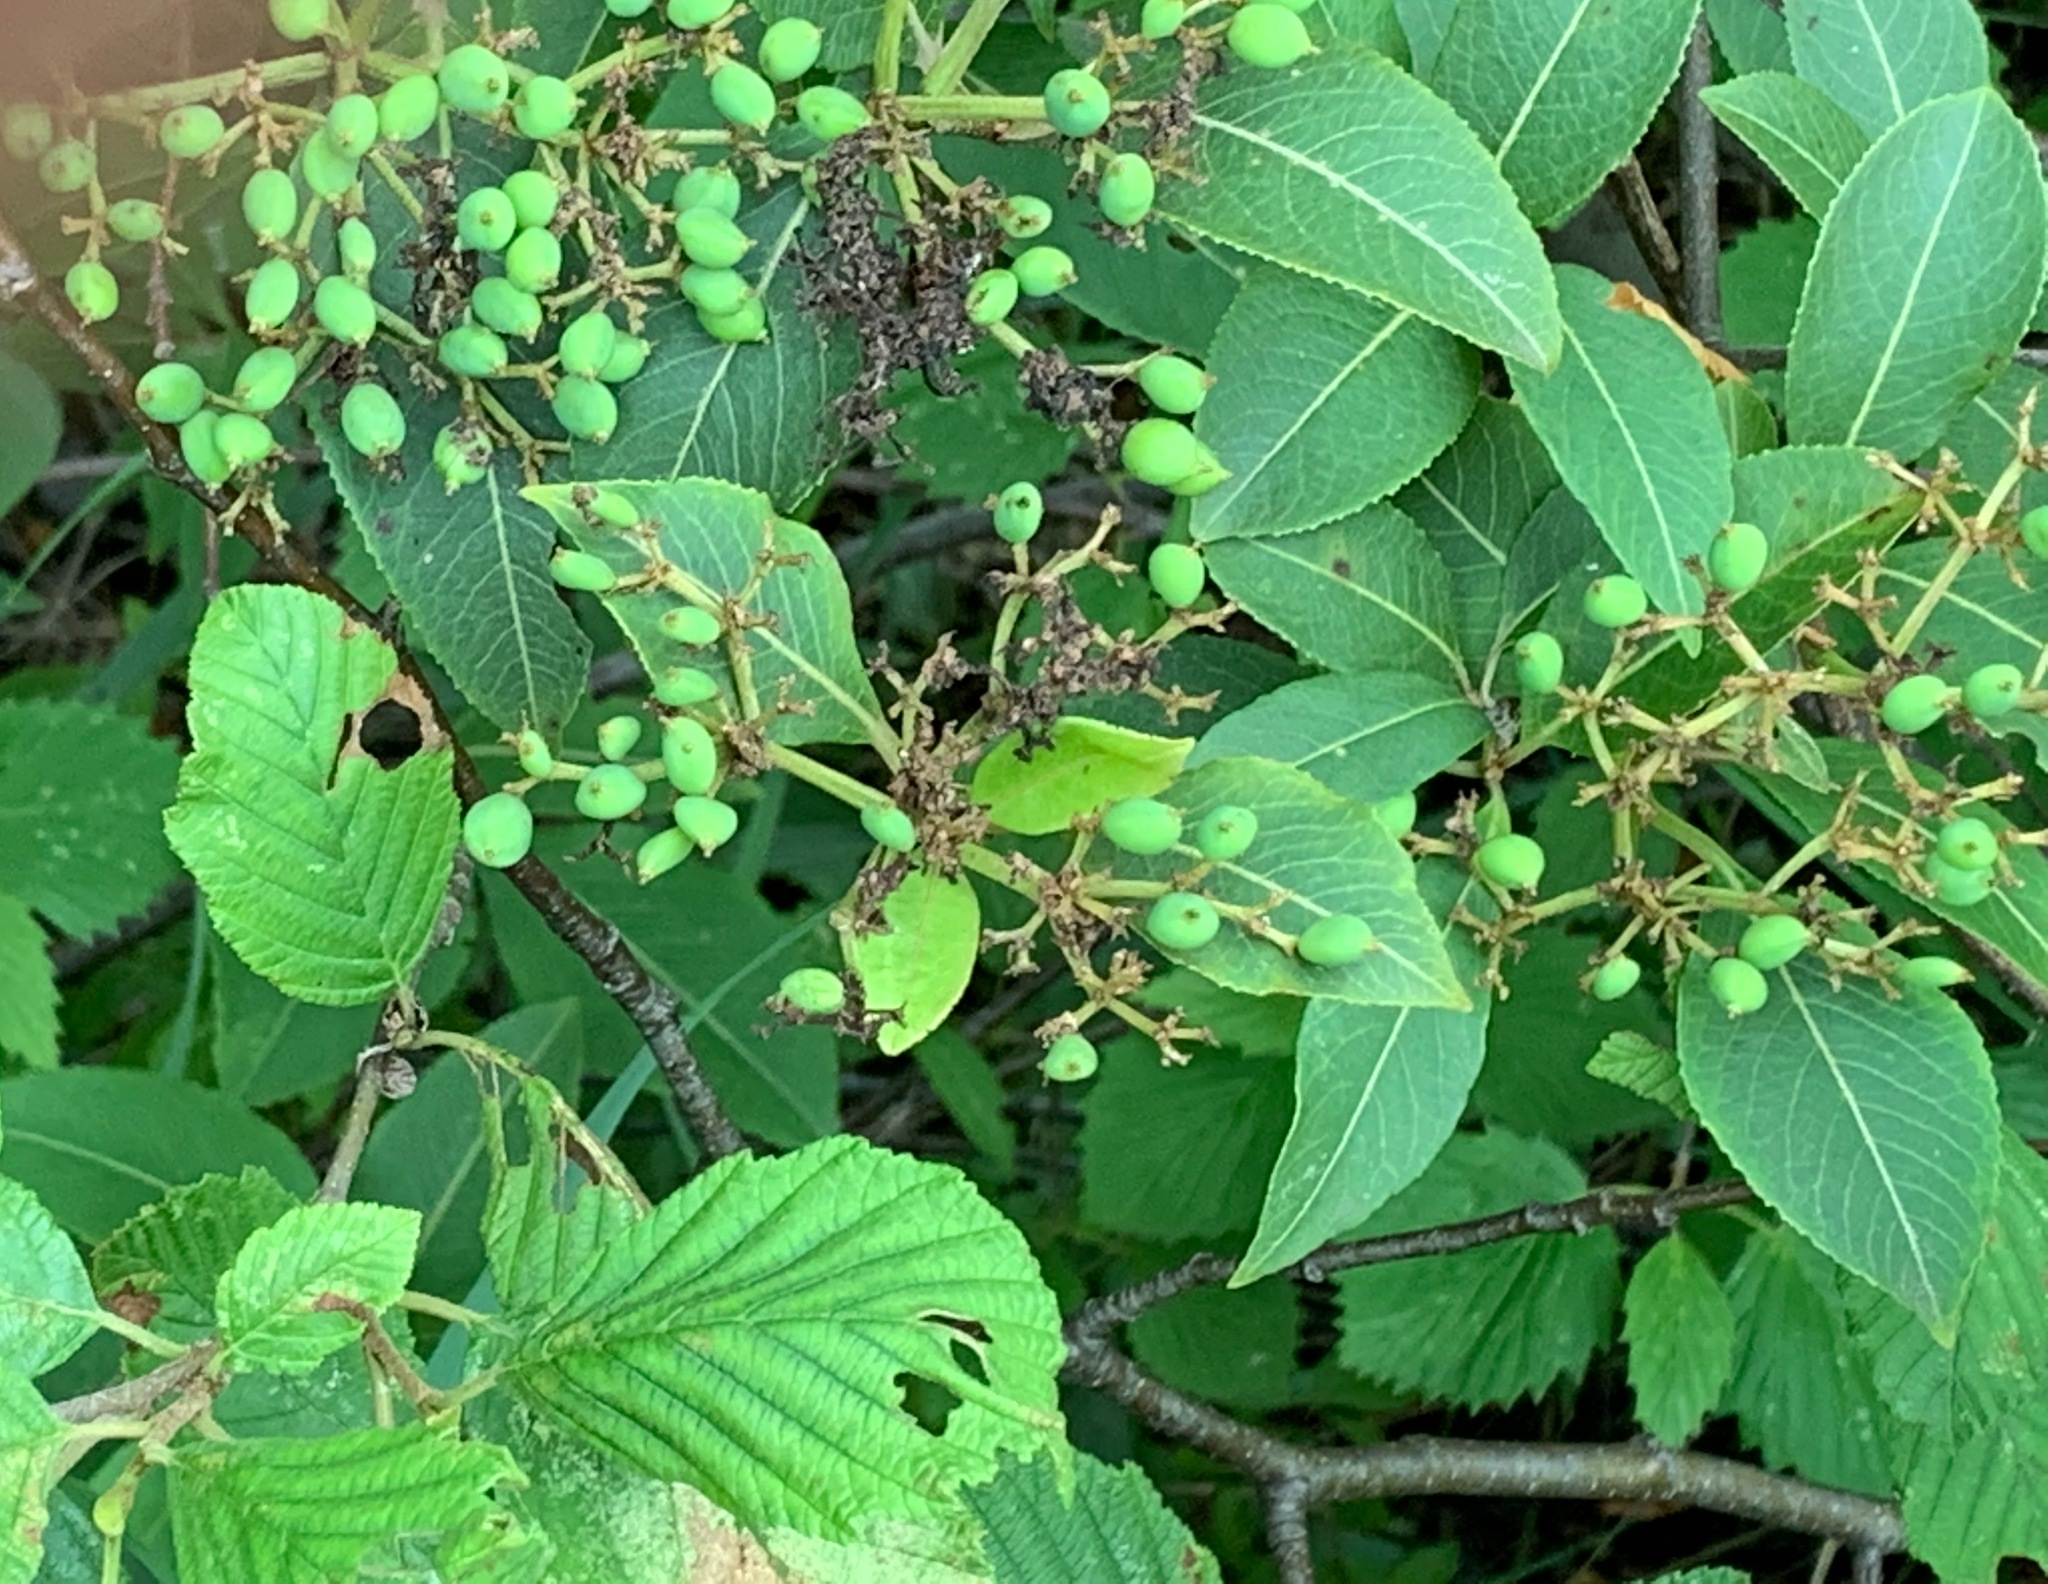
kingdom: Plantae
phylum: Tracheophyta
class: Magnoliopsida
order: Dipsacales
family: Viburnaceae
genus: Viburnum
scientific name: Viburnum cassinoides
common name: Swamp haw
